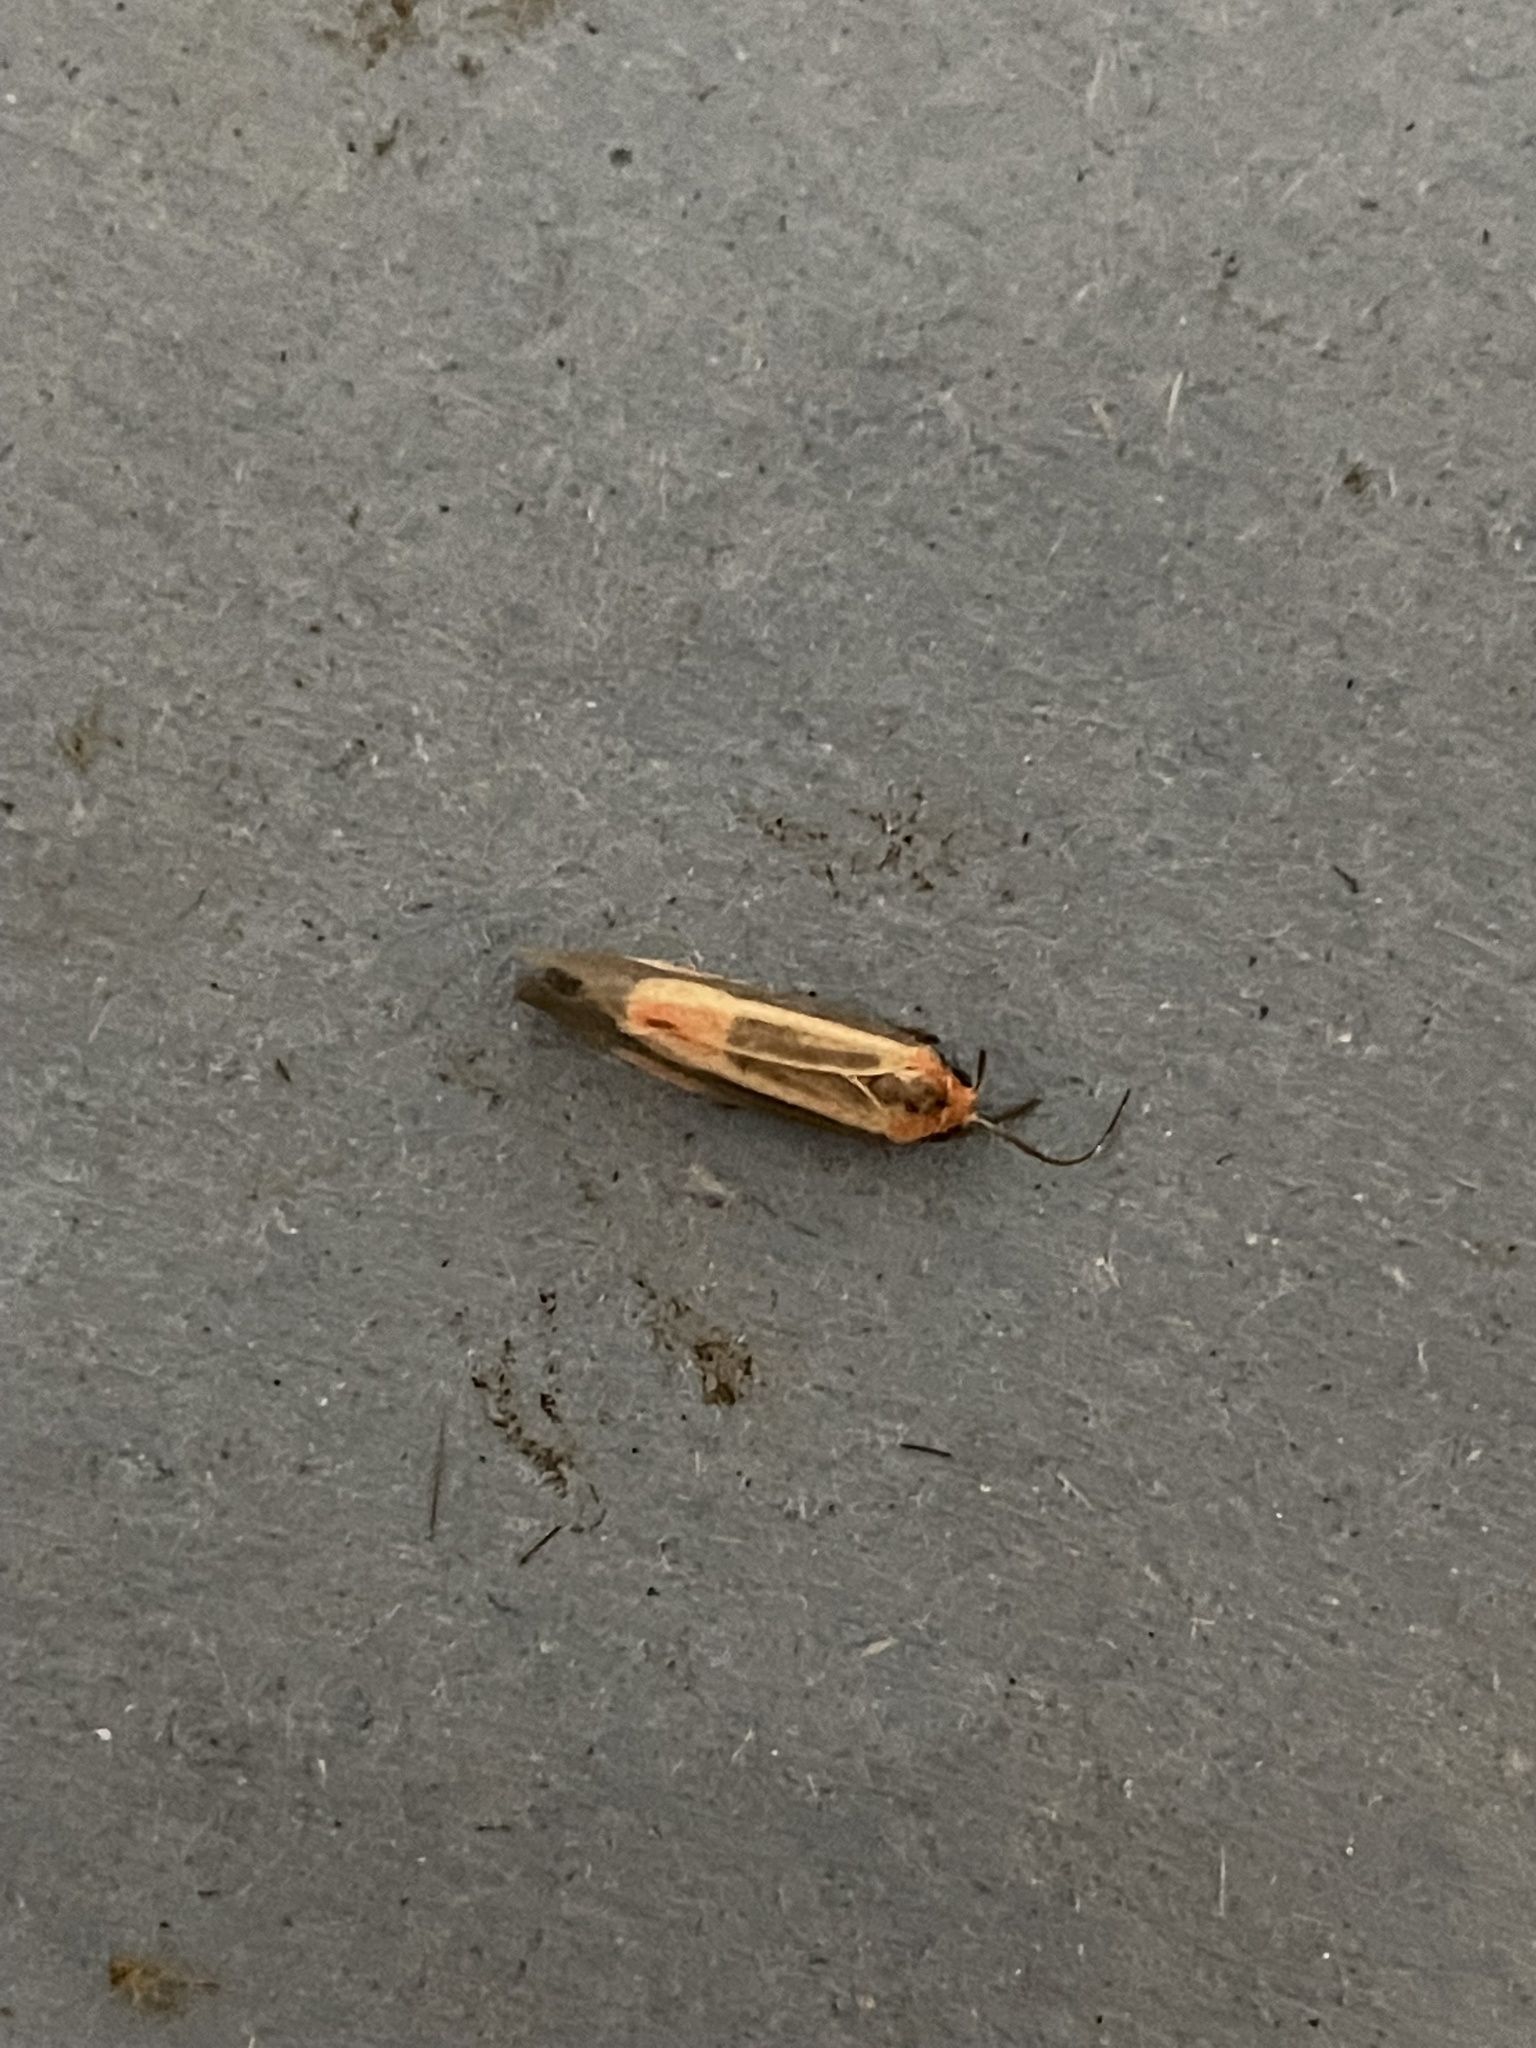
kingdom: Animalia
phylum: Arthropoda
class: Insecta
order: Lepidoptera
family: Erebidae
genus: Cisthene
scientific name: Cisthene packardii
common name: Packard's lichen moth
